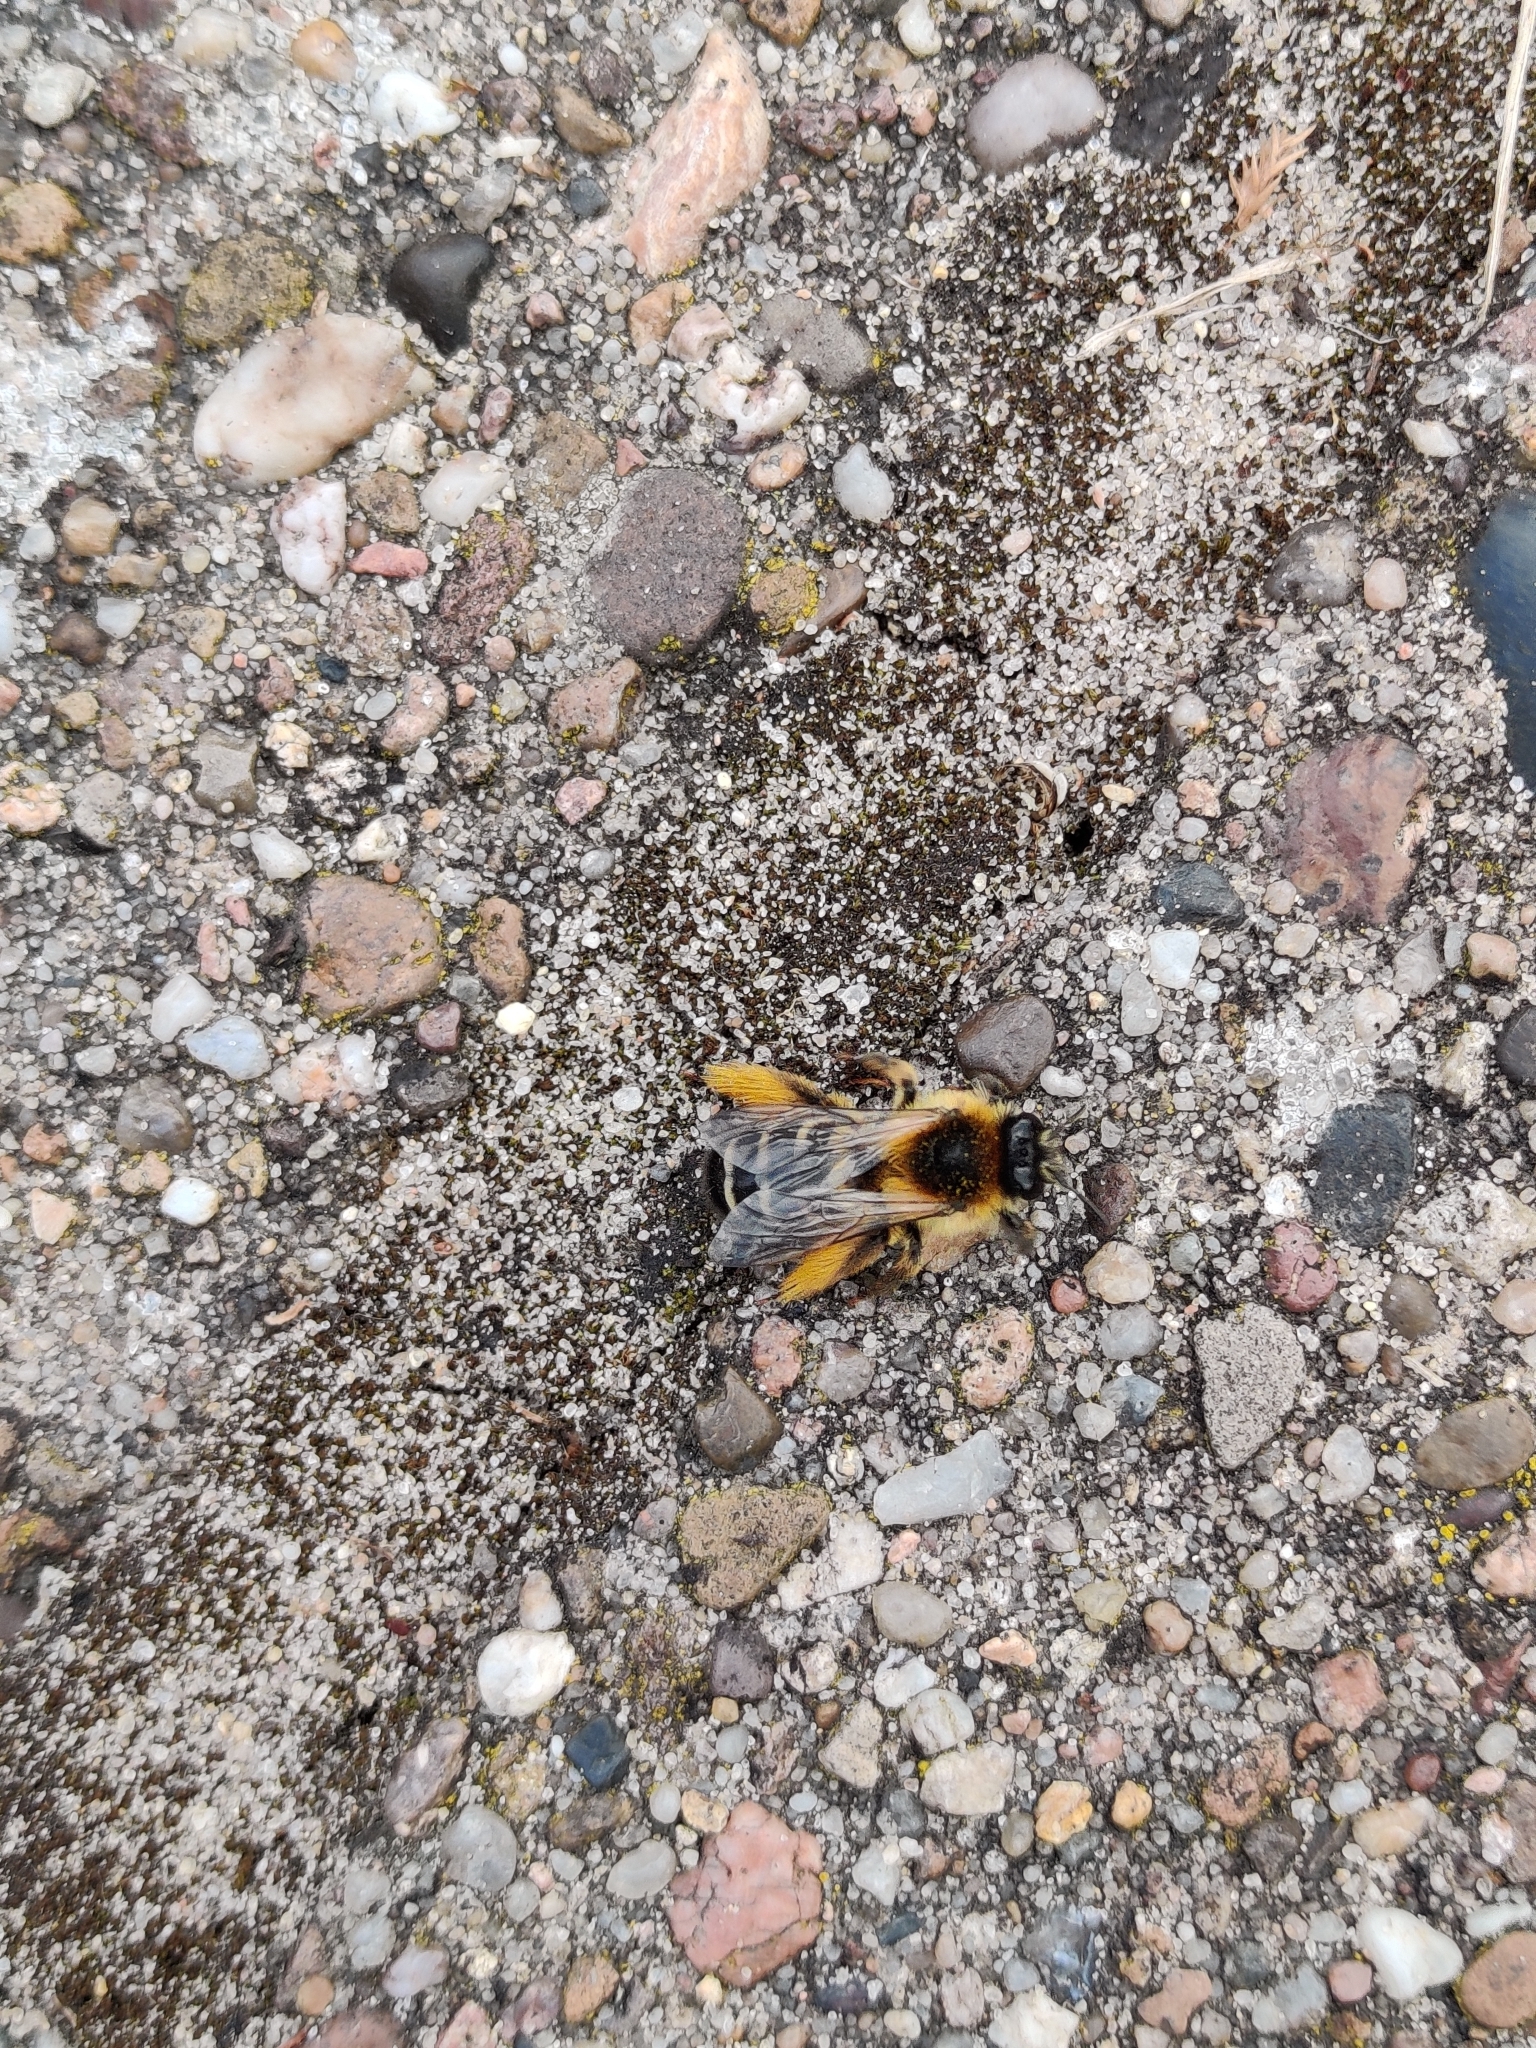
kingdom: Animalia
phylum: Arthropoda
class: Insecta
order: Hymenoptera
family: Melittidae
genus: Dasypoda
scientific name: Dasypoda hirtipes
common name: Pantaloon bee
